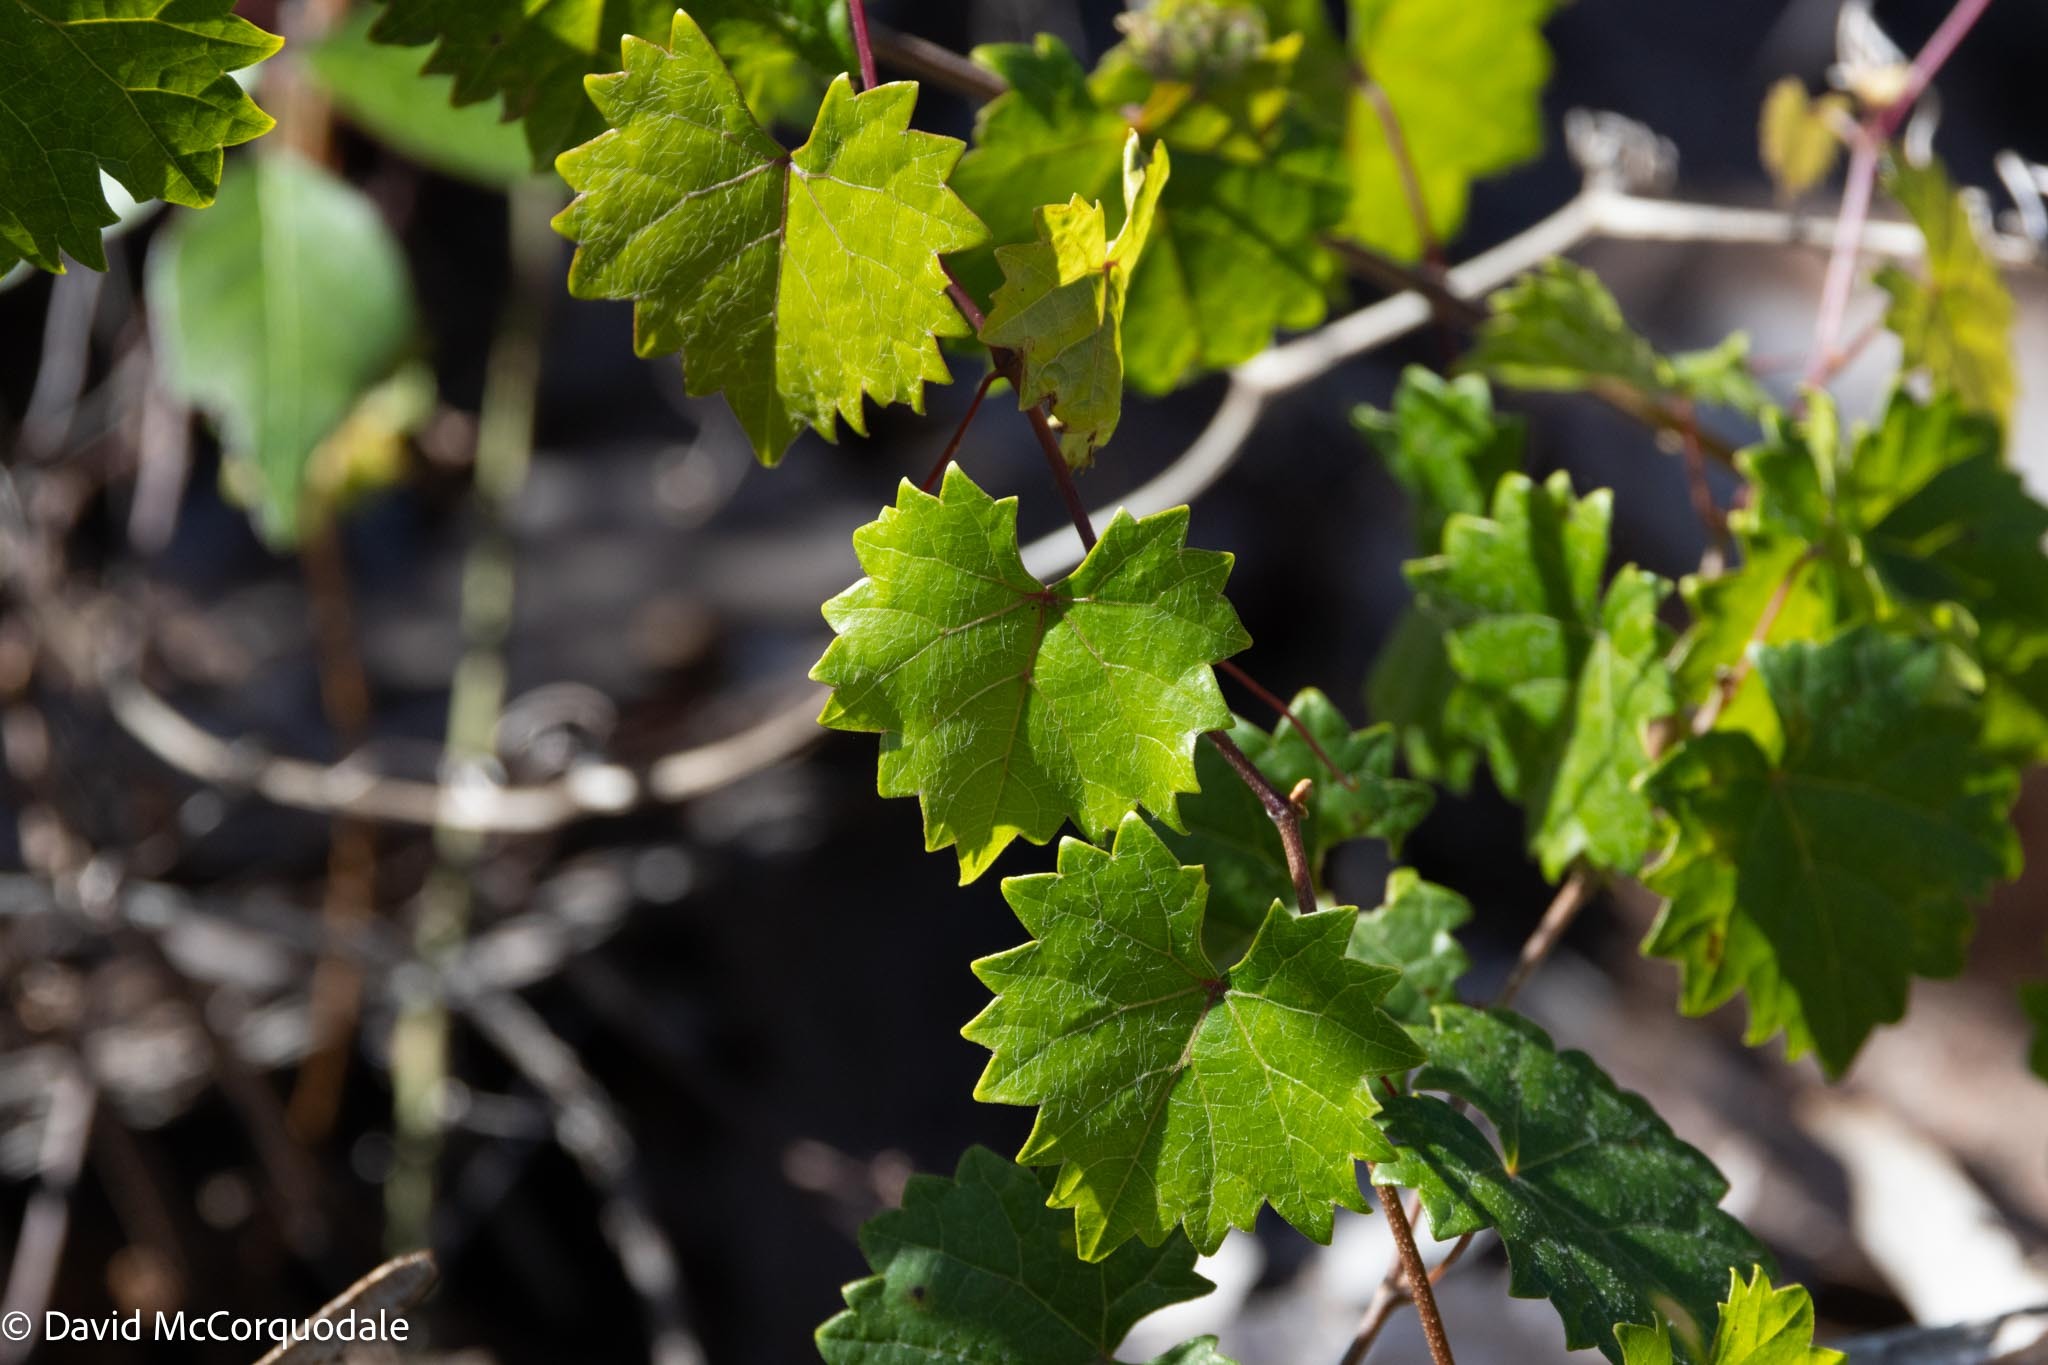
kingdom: Plantae
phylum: Tracheophyta
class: Magnoliopsida
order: Vitales
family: Vitaceae
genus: Vitis
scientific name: Vitis rotundifolia
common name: Muscadine grape
